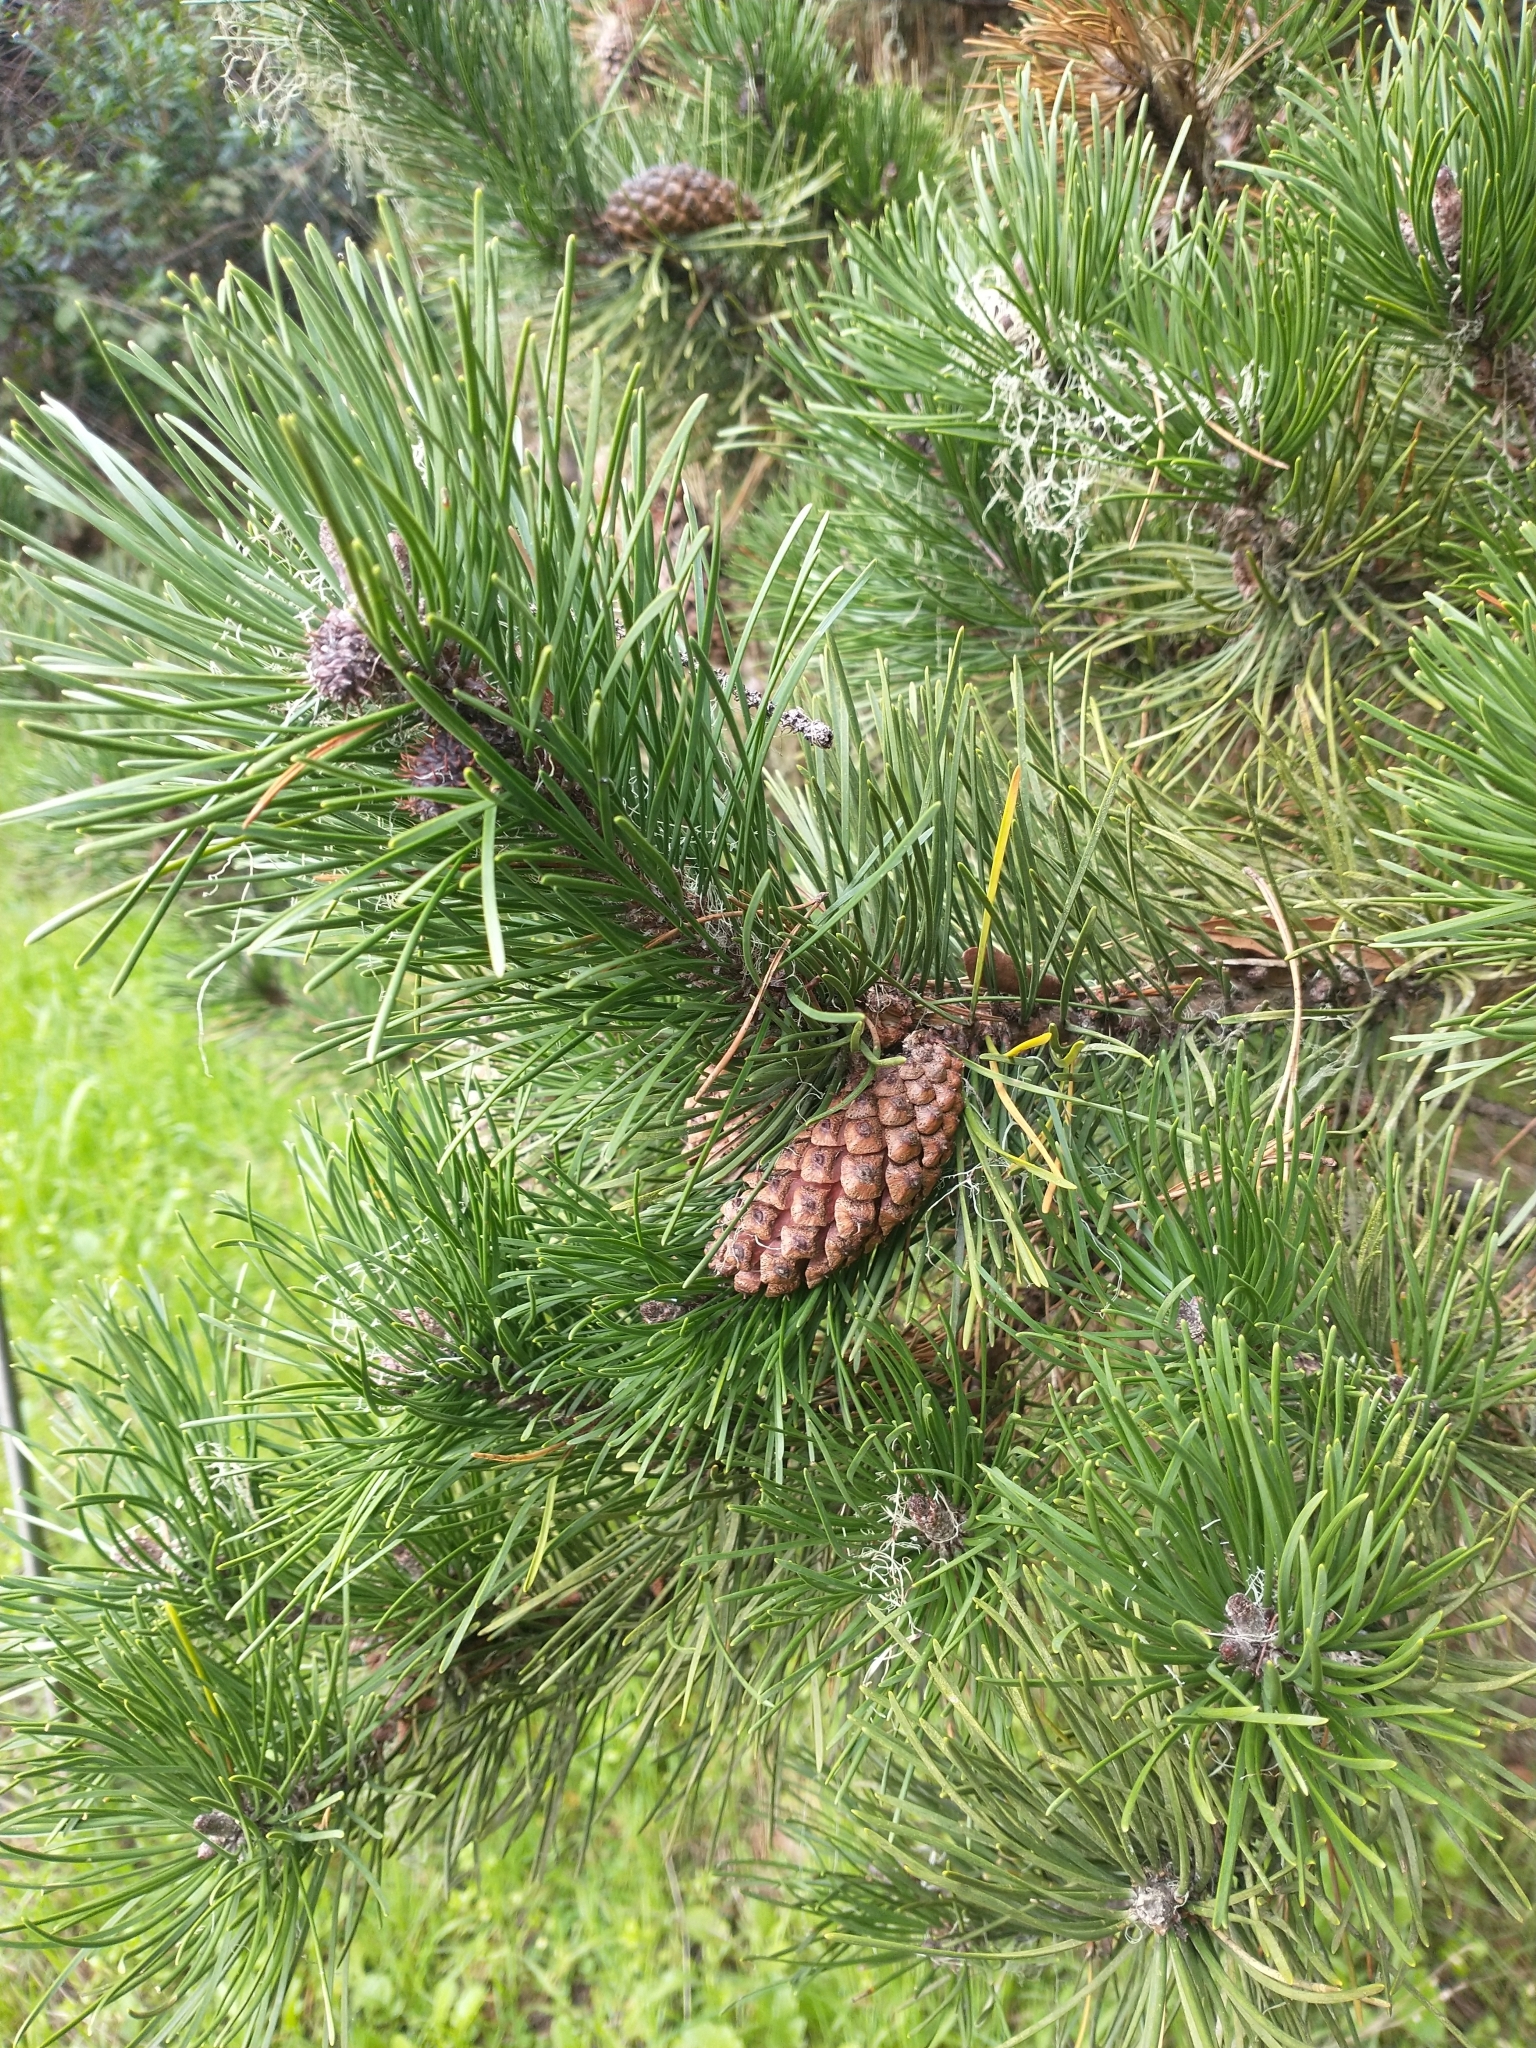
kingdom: Plantae
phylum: Tracheophyta
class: Pinopsida
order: Pinales
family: Pinaceae
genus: Pinus
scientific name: Pinus contorta
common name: Lodgepole pine
